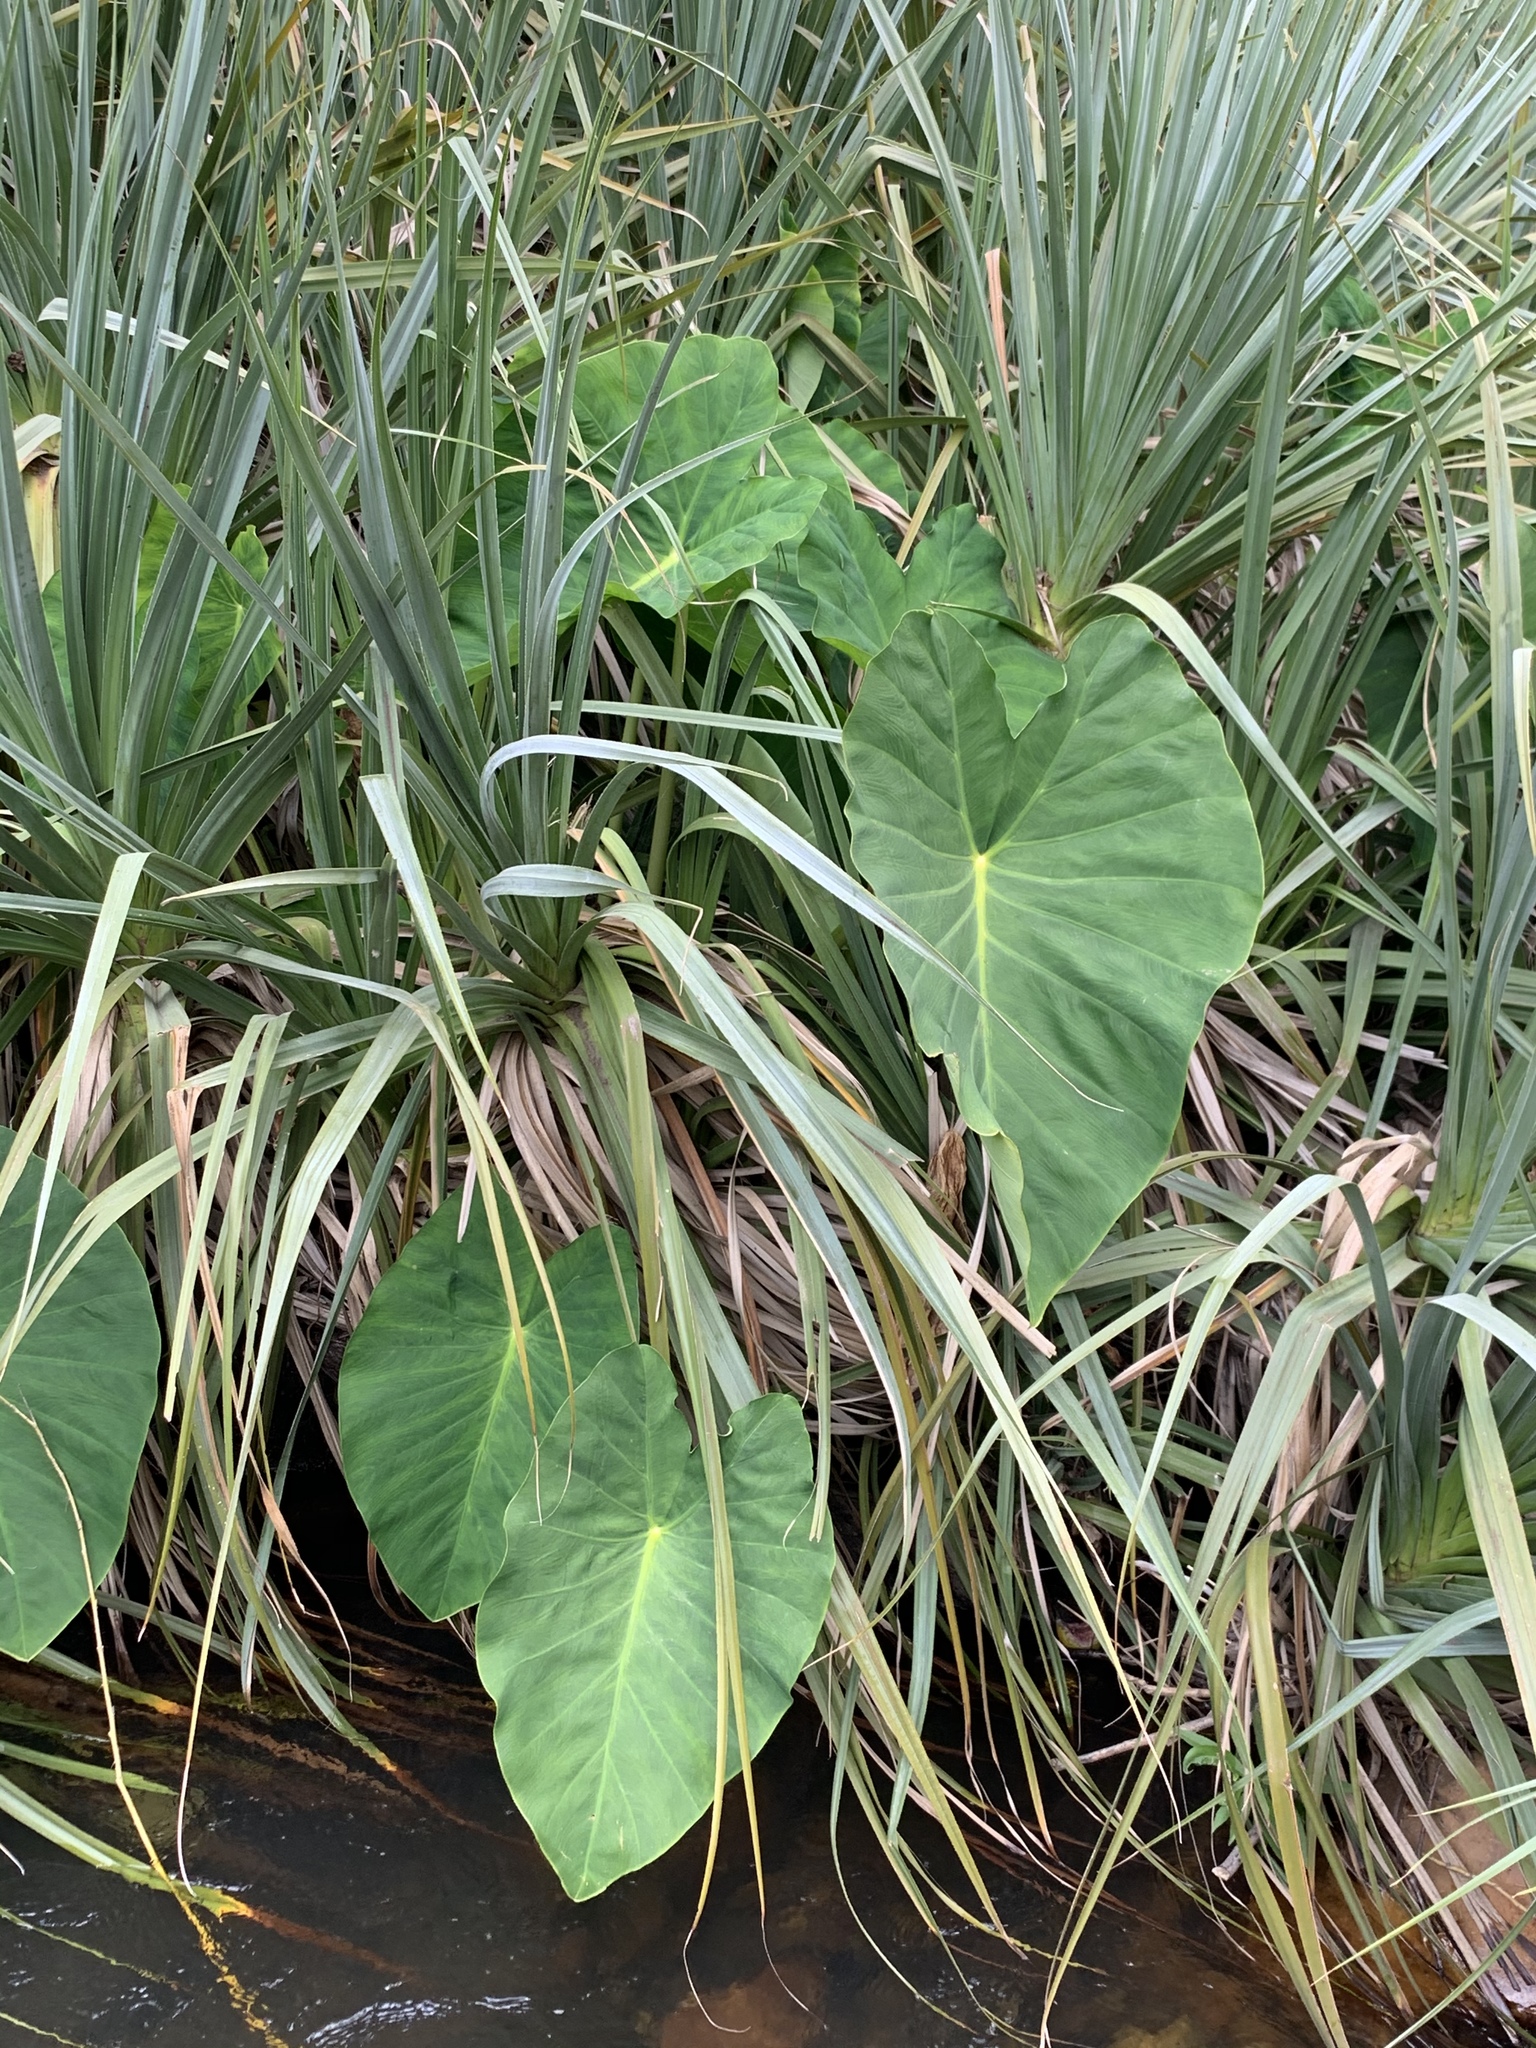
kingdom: Plantae
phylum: Tracheophyta
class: Liliopsida
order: Alismatales
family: Araceae
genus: Colocasia
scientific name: Colocasia esculenta
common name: Taro
